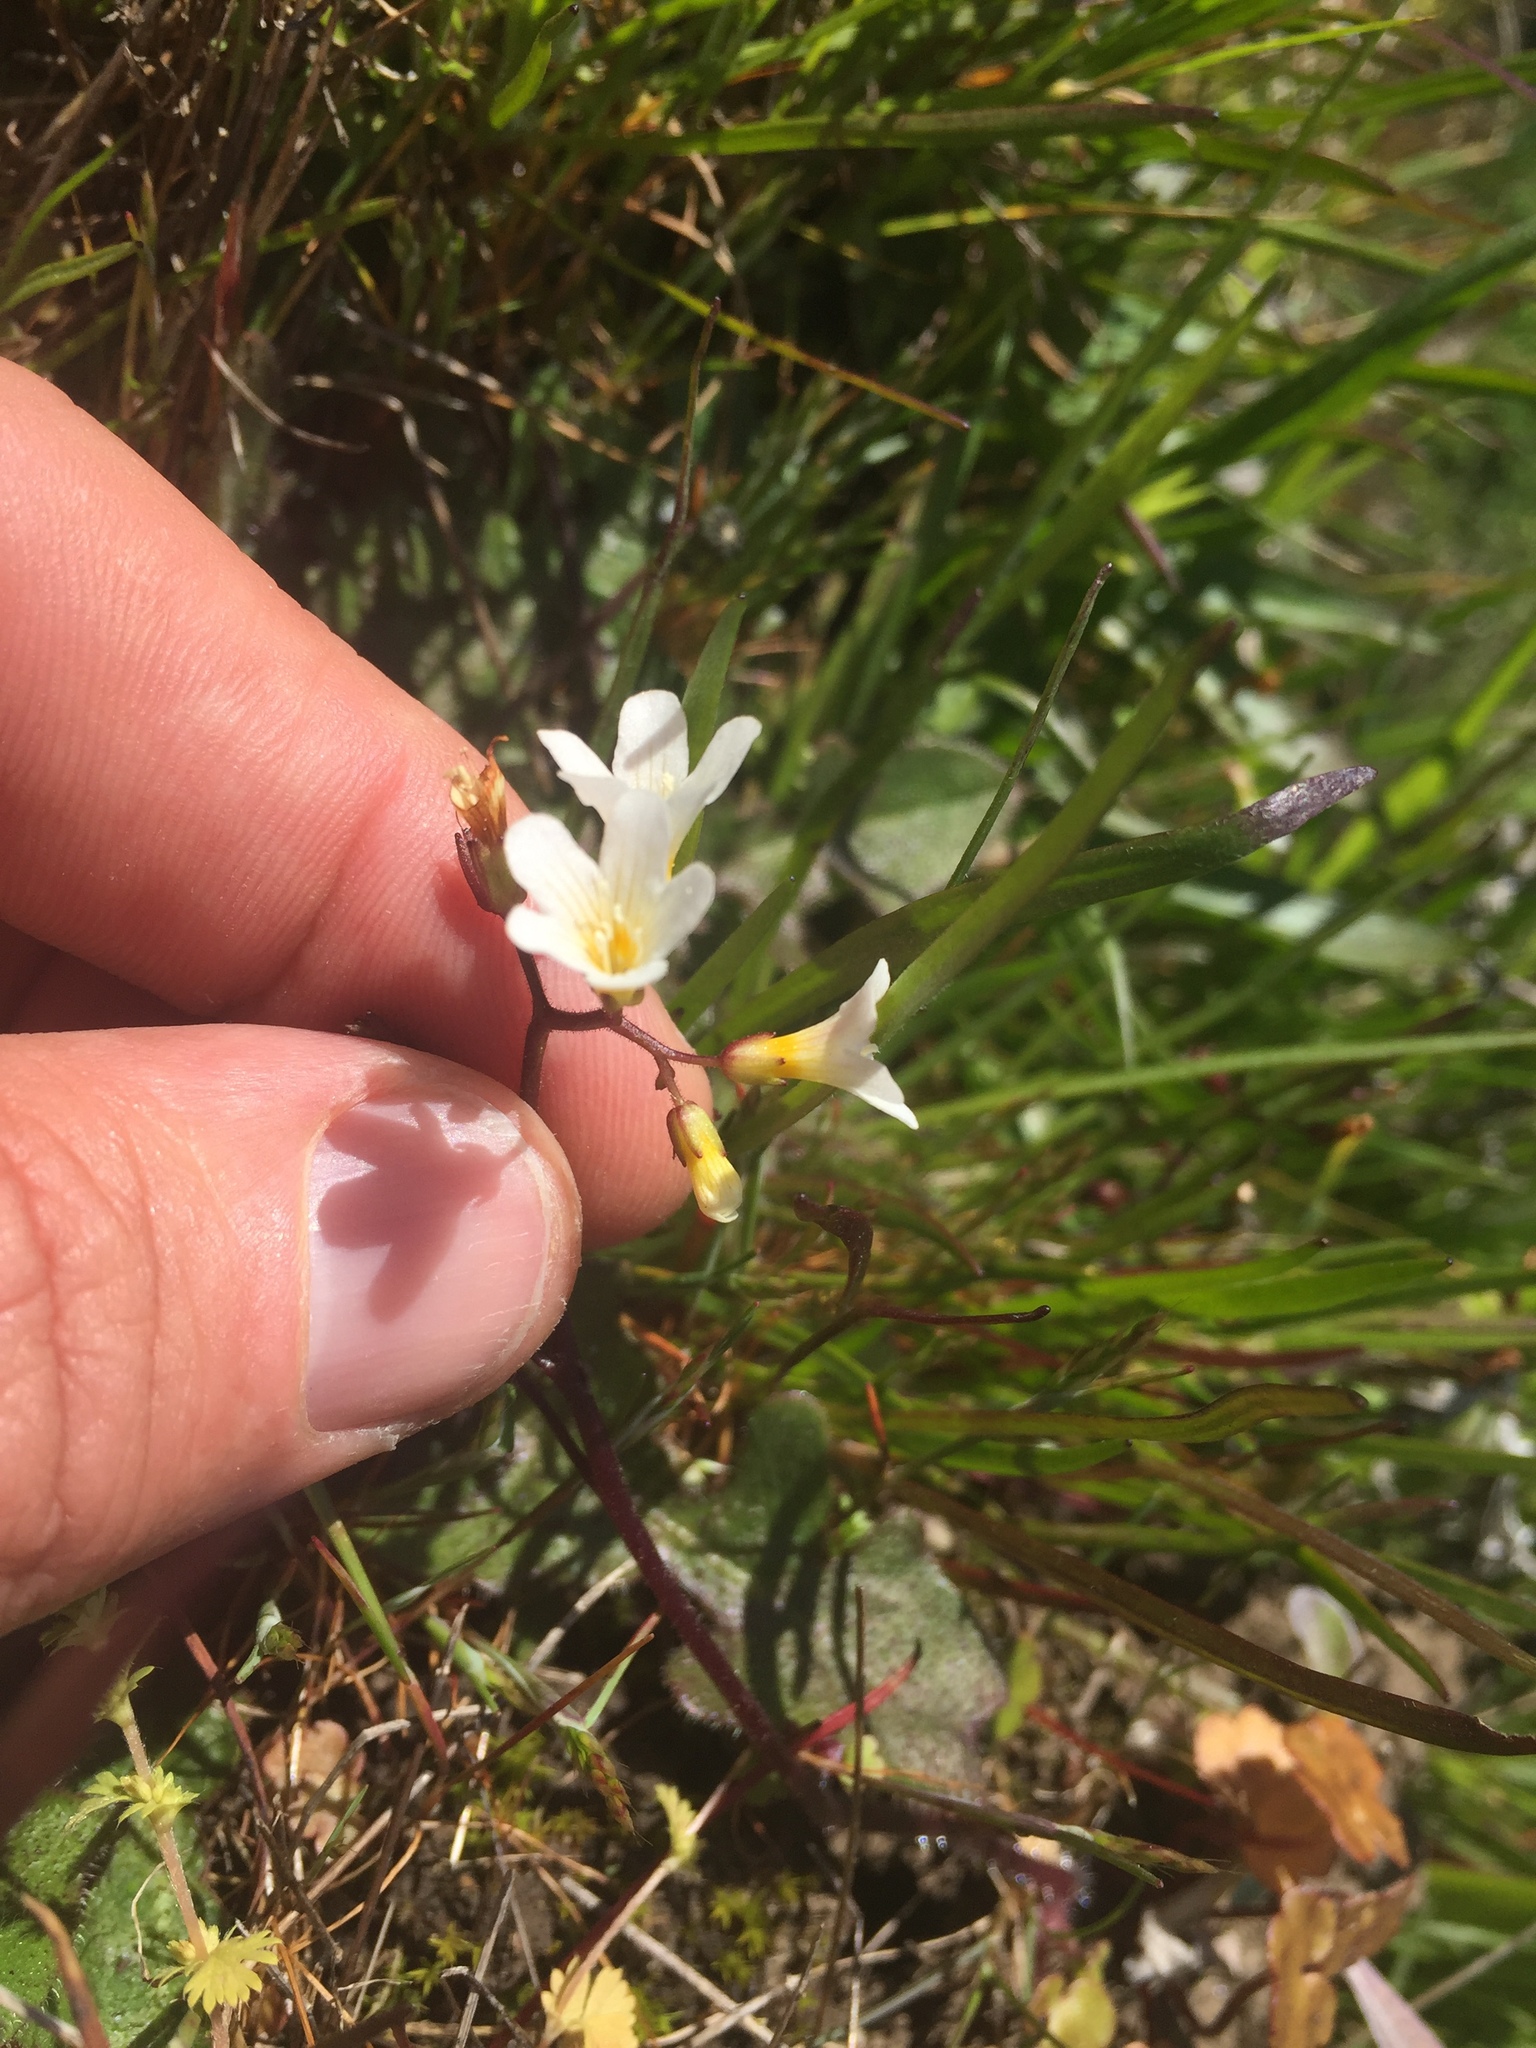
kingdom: Plantae
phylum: Tracheophyta
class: Magnoliopsida
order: Boraginales
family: Hydrophyllaceae
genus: Romanzoffia
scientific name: Romanzoffia californica
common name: California mistmaiden
